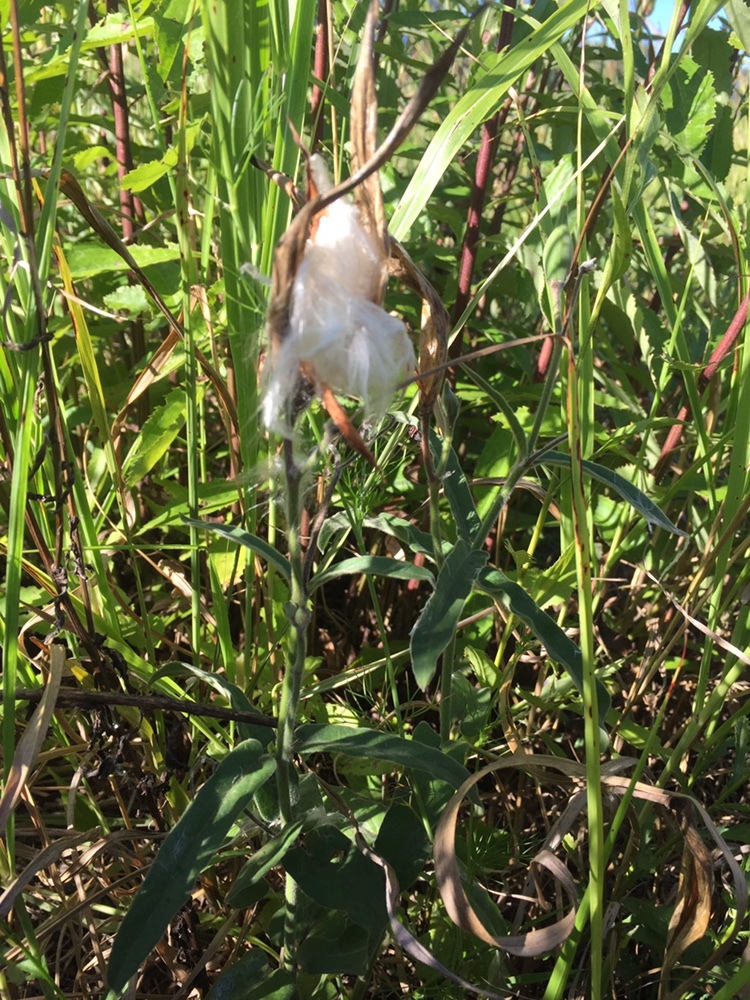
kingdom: Plantae
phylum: Tracheophyta
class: Magnoliopsida
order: Gentianales
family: Apocynaceae
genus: Oxypetalum
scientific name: Oxypetalum solanoides
